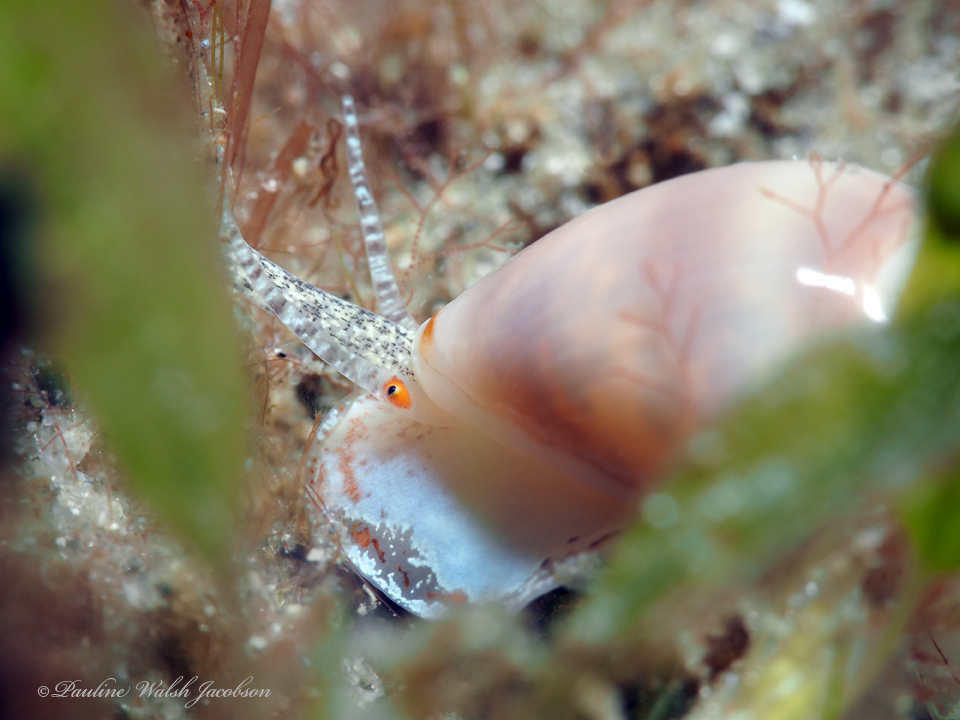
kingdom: Animalia
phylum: Mollusca
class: Gastropoda
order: Neogastropoda
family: Marginellidae
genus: Prunum
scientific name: Prunum apicinum
